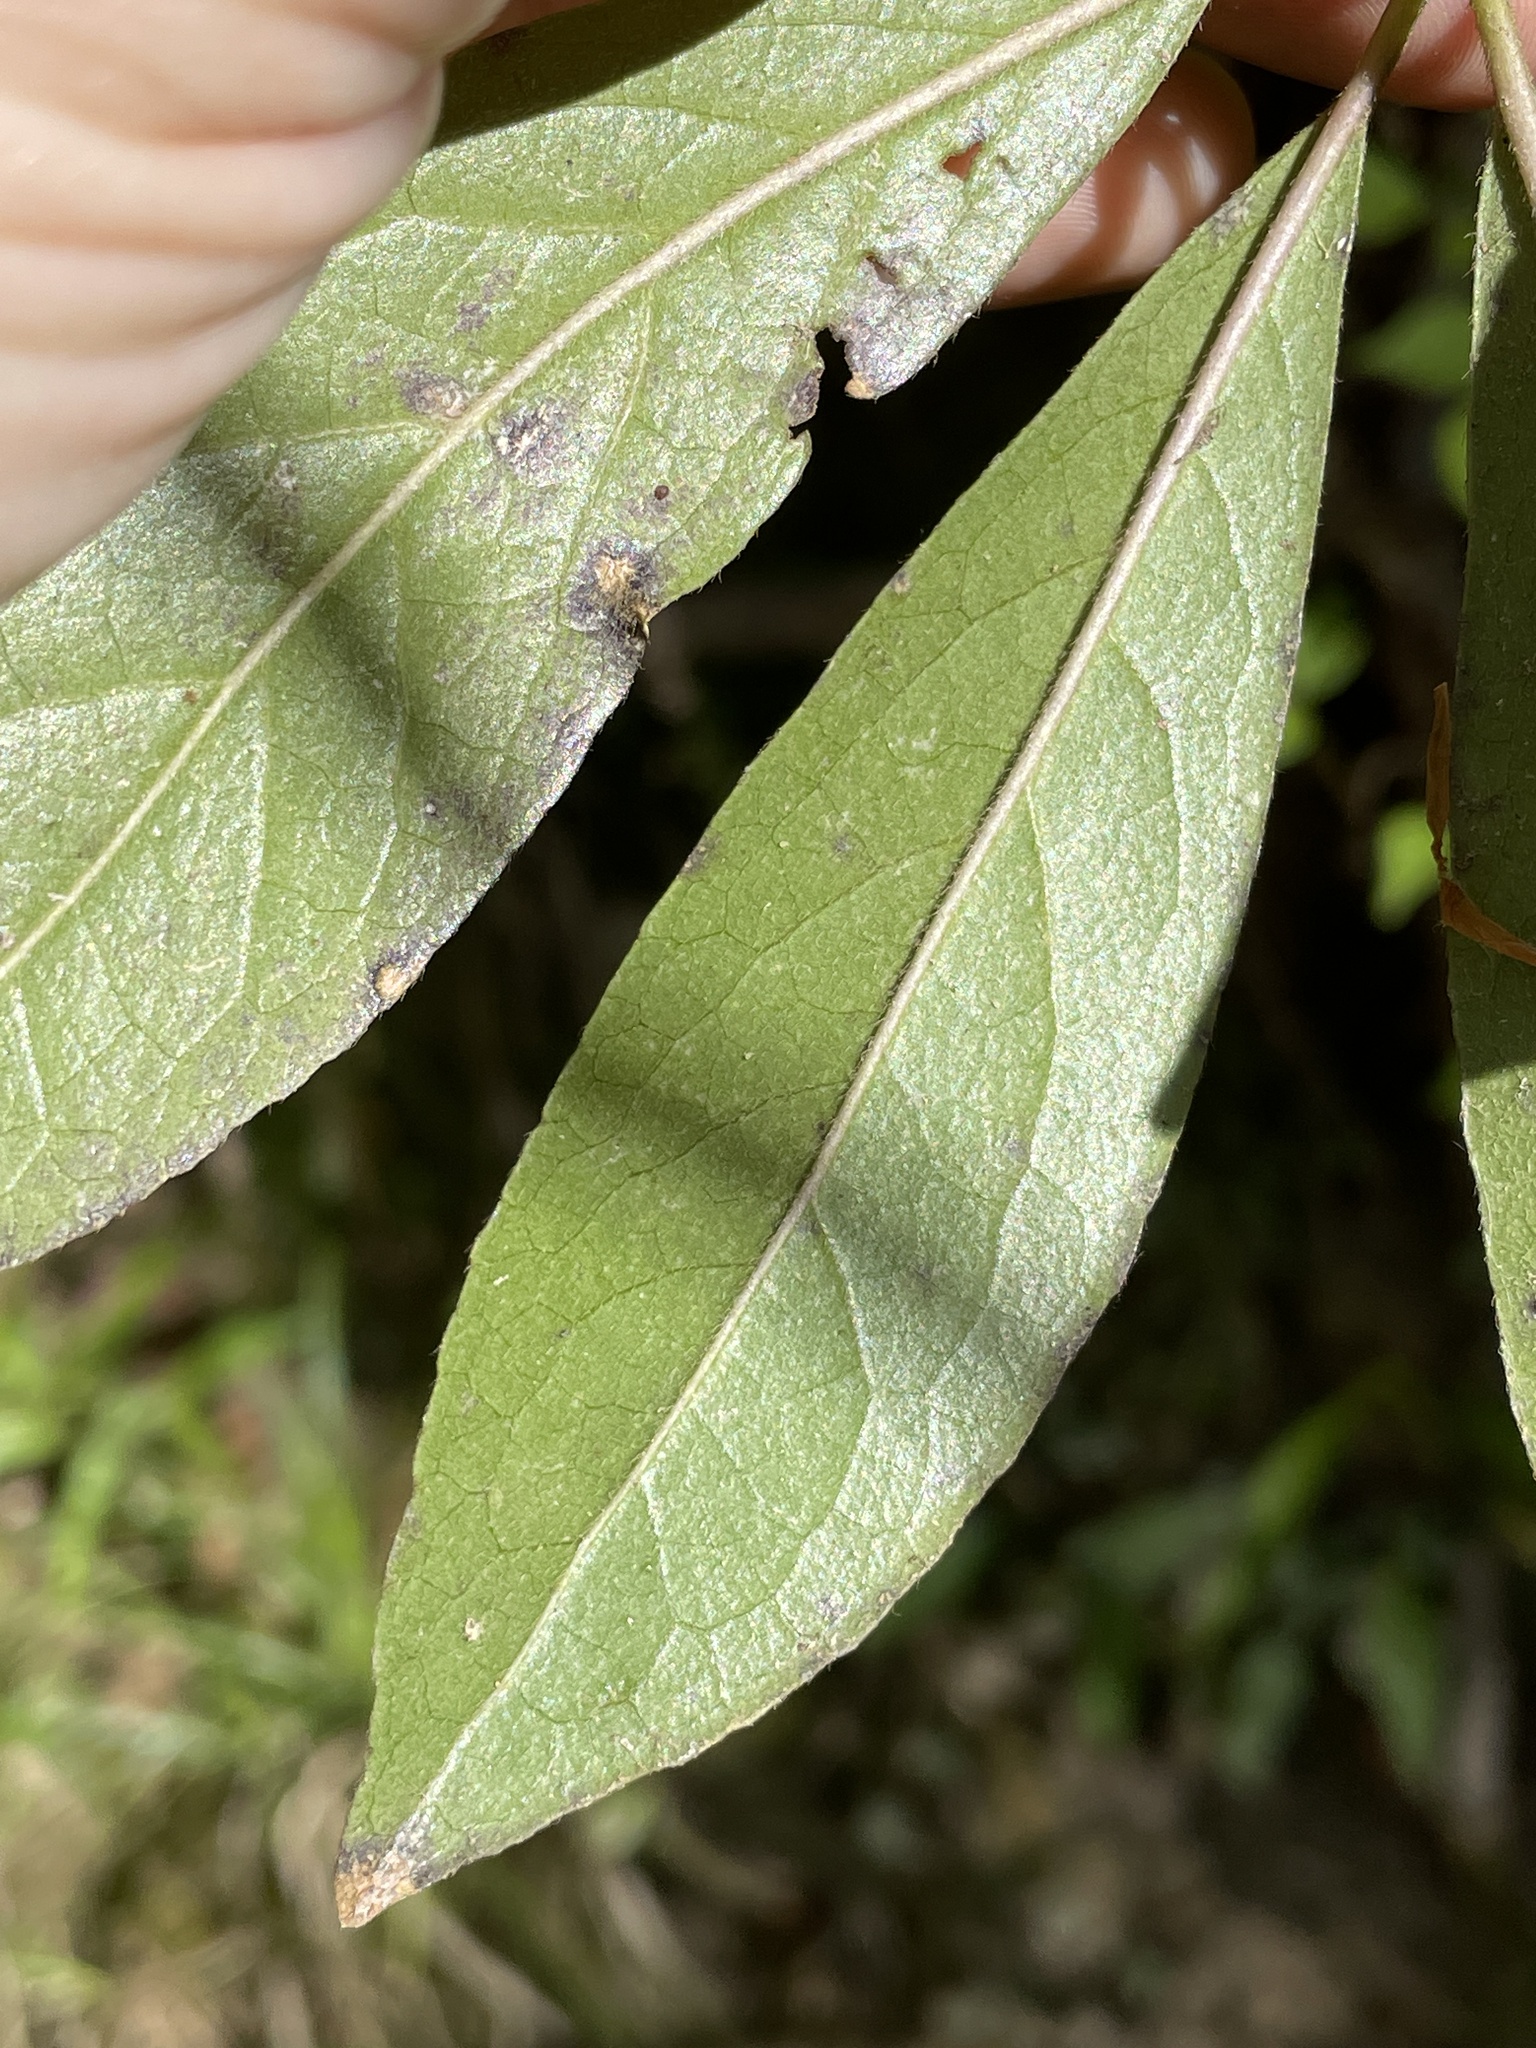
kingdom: Plantae
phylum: Tracheophyta
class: Magnoliopsida
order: Ericales
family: Symplocaceae
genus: Symplocos
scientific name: Symplocos tinctoria
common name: Horse-sugar
